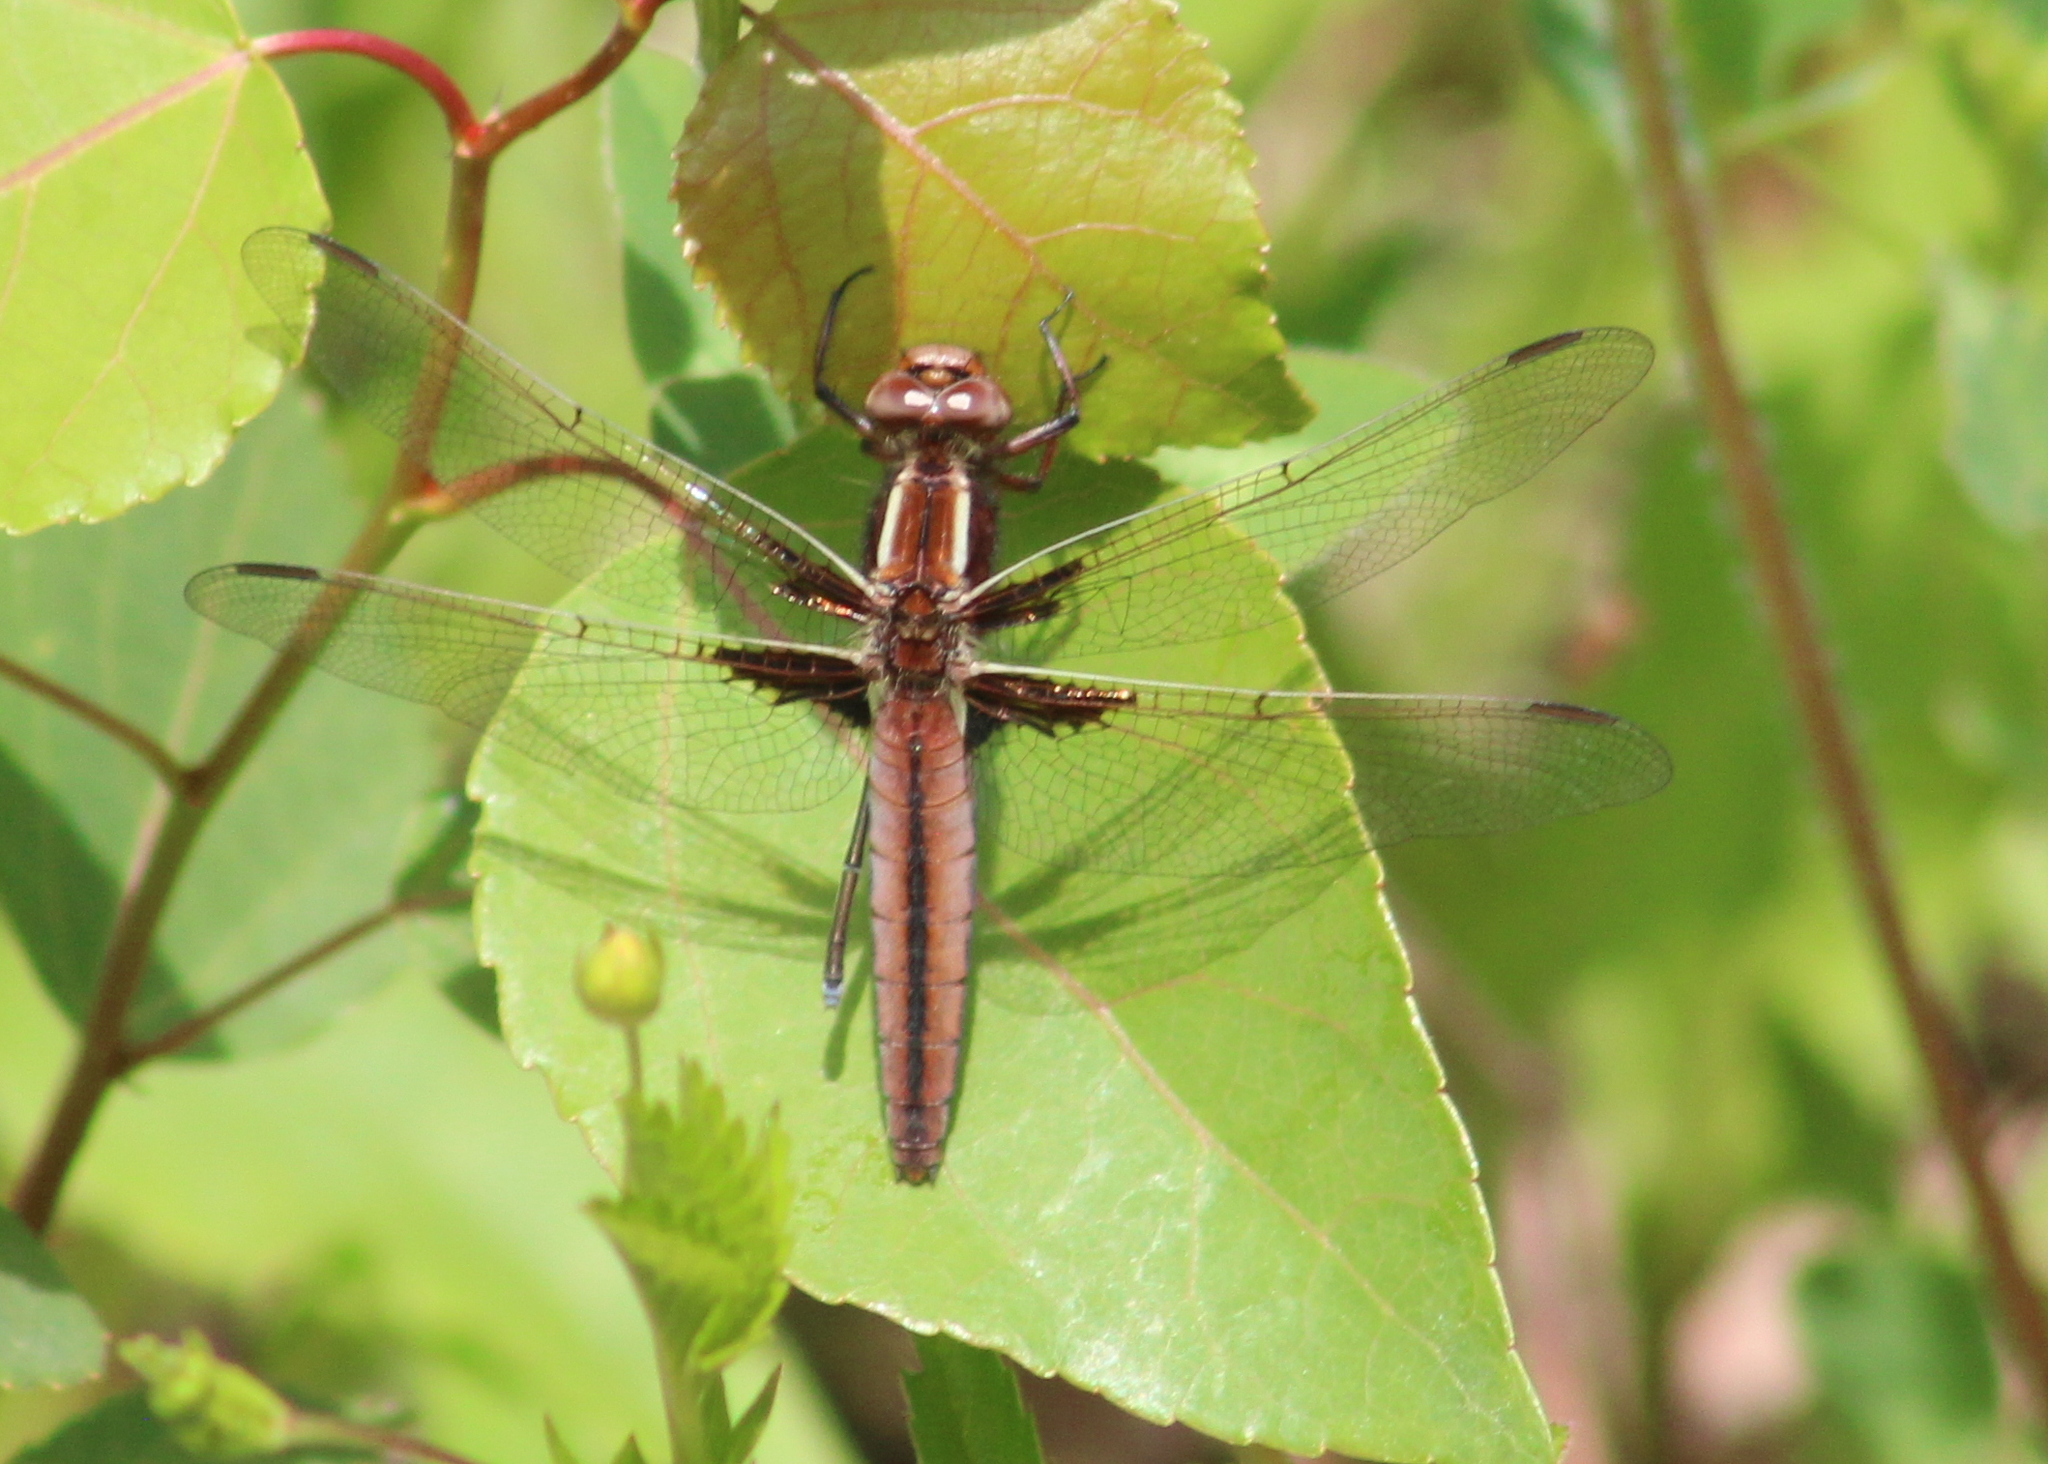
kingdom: Animalia
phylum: Arthropoda
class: Insecta
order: Odonata
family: Libellulidae
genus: Ladona
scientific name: Ladona julia
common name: Chalk-fronted corporal
